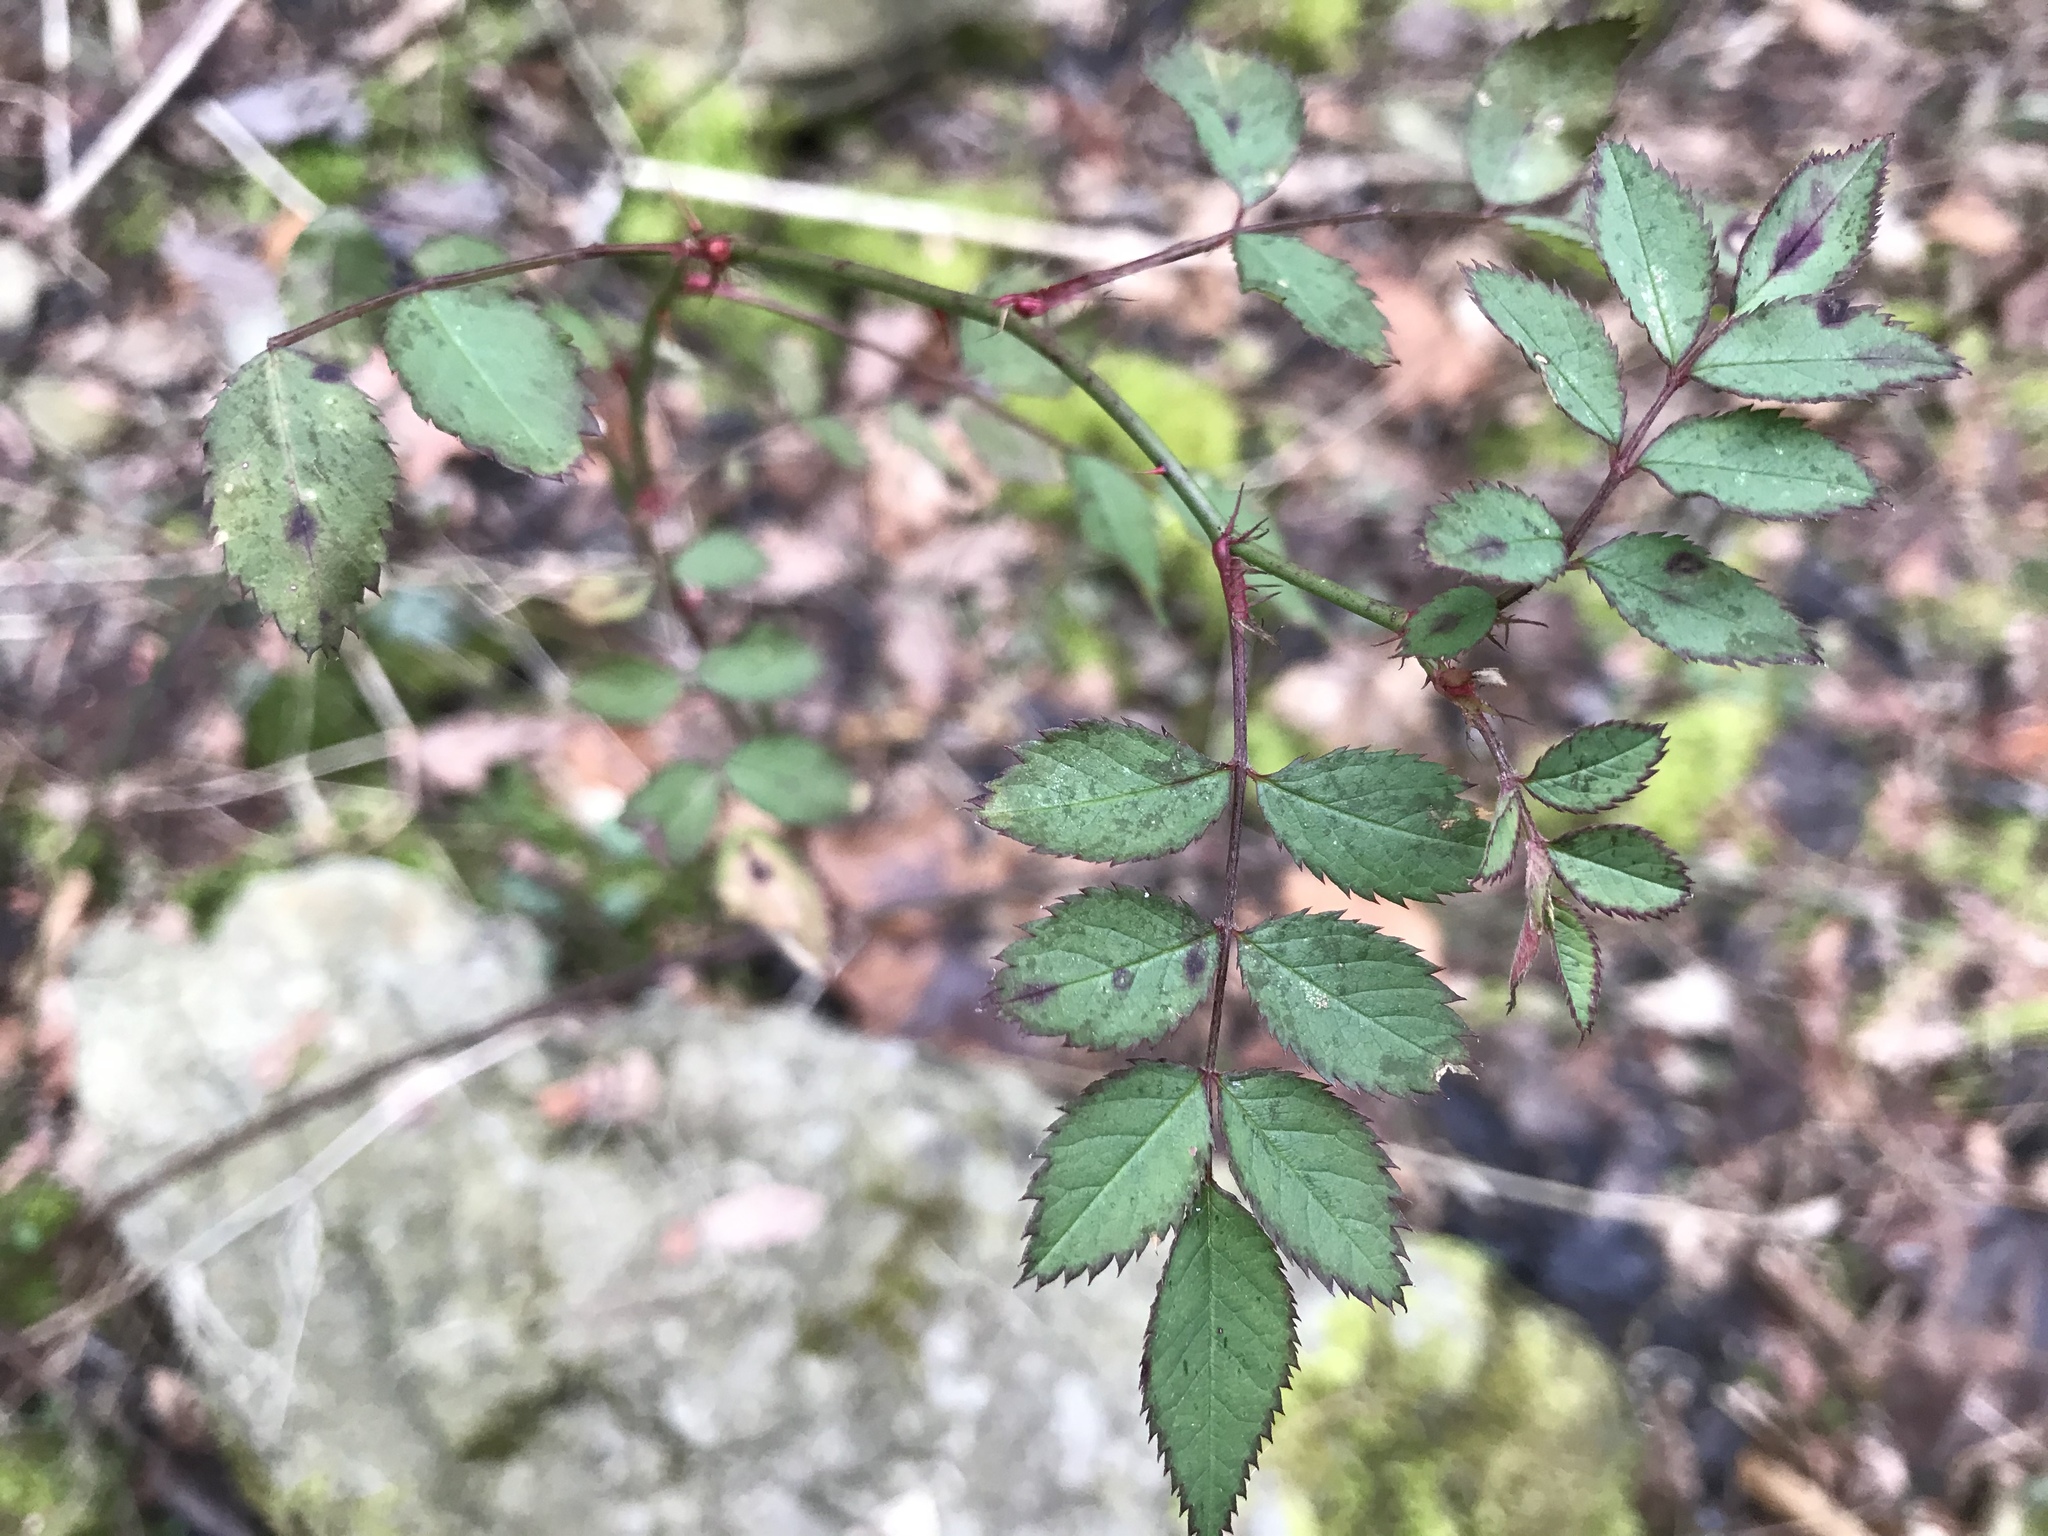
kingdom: Plantae
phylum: Tracheophyta
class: Magnoliopsida
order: Rosales
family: Rosaceae
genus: Rosa
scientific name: Rosa multiflora
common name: Multiflora rose
